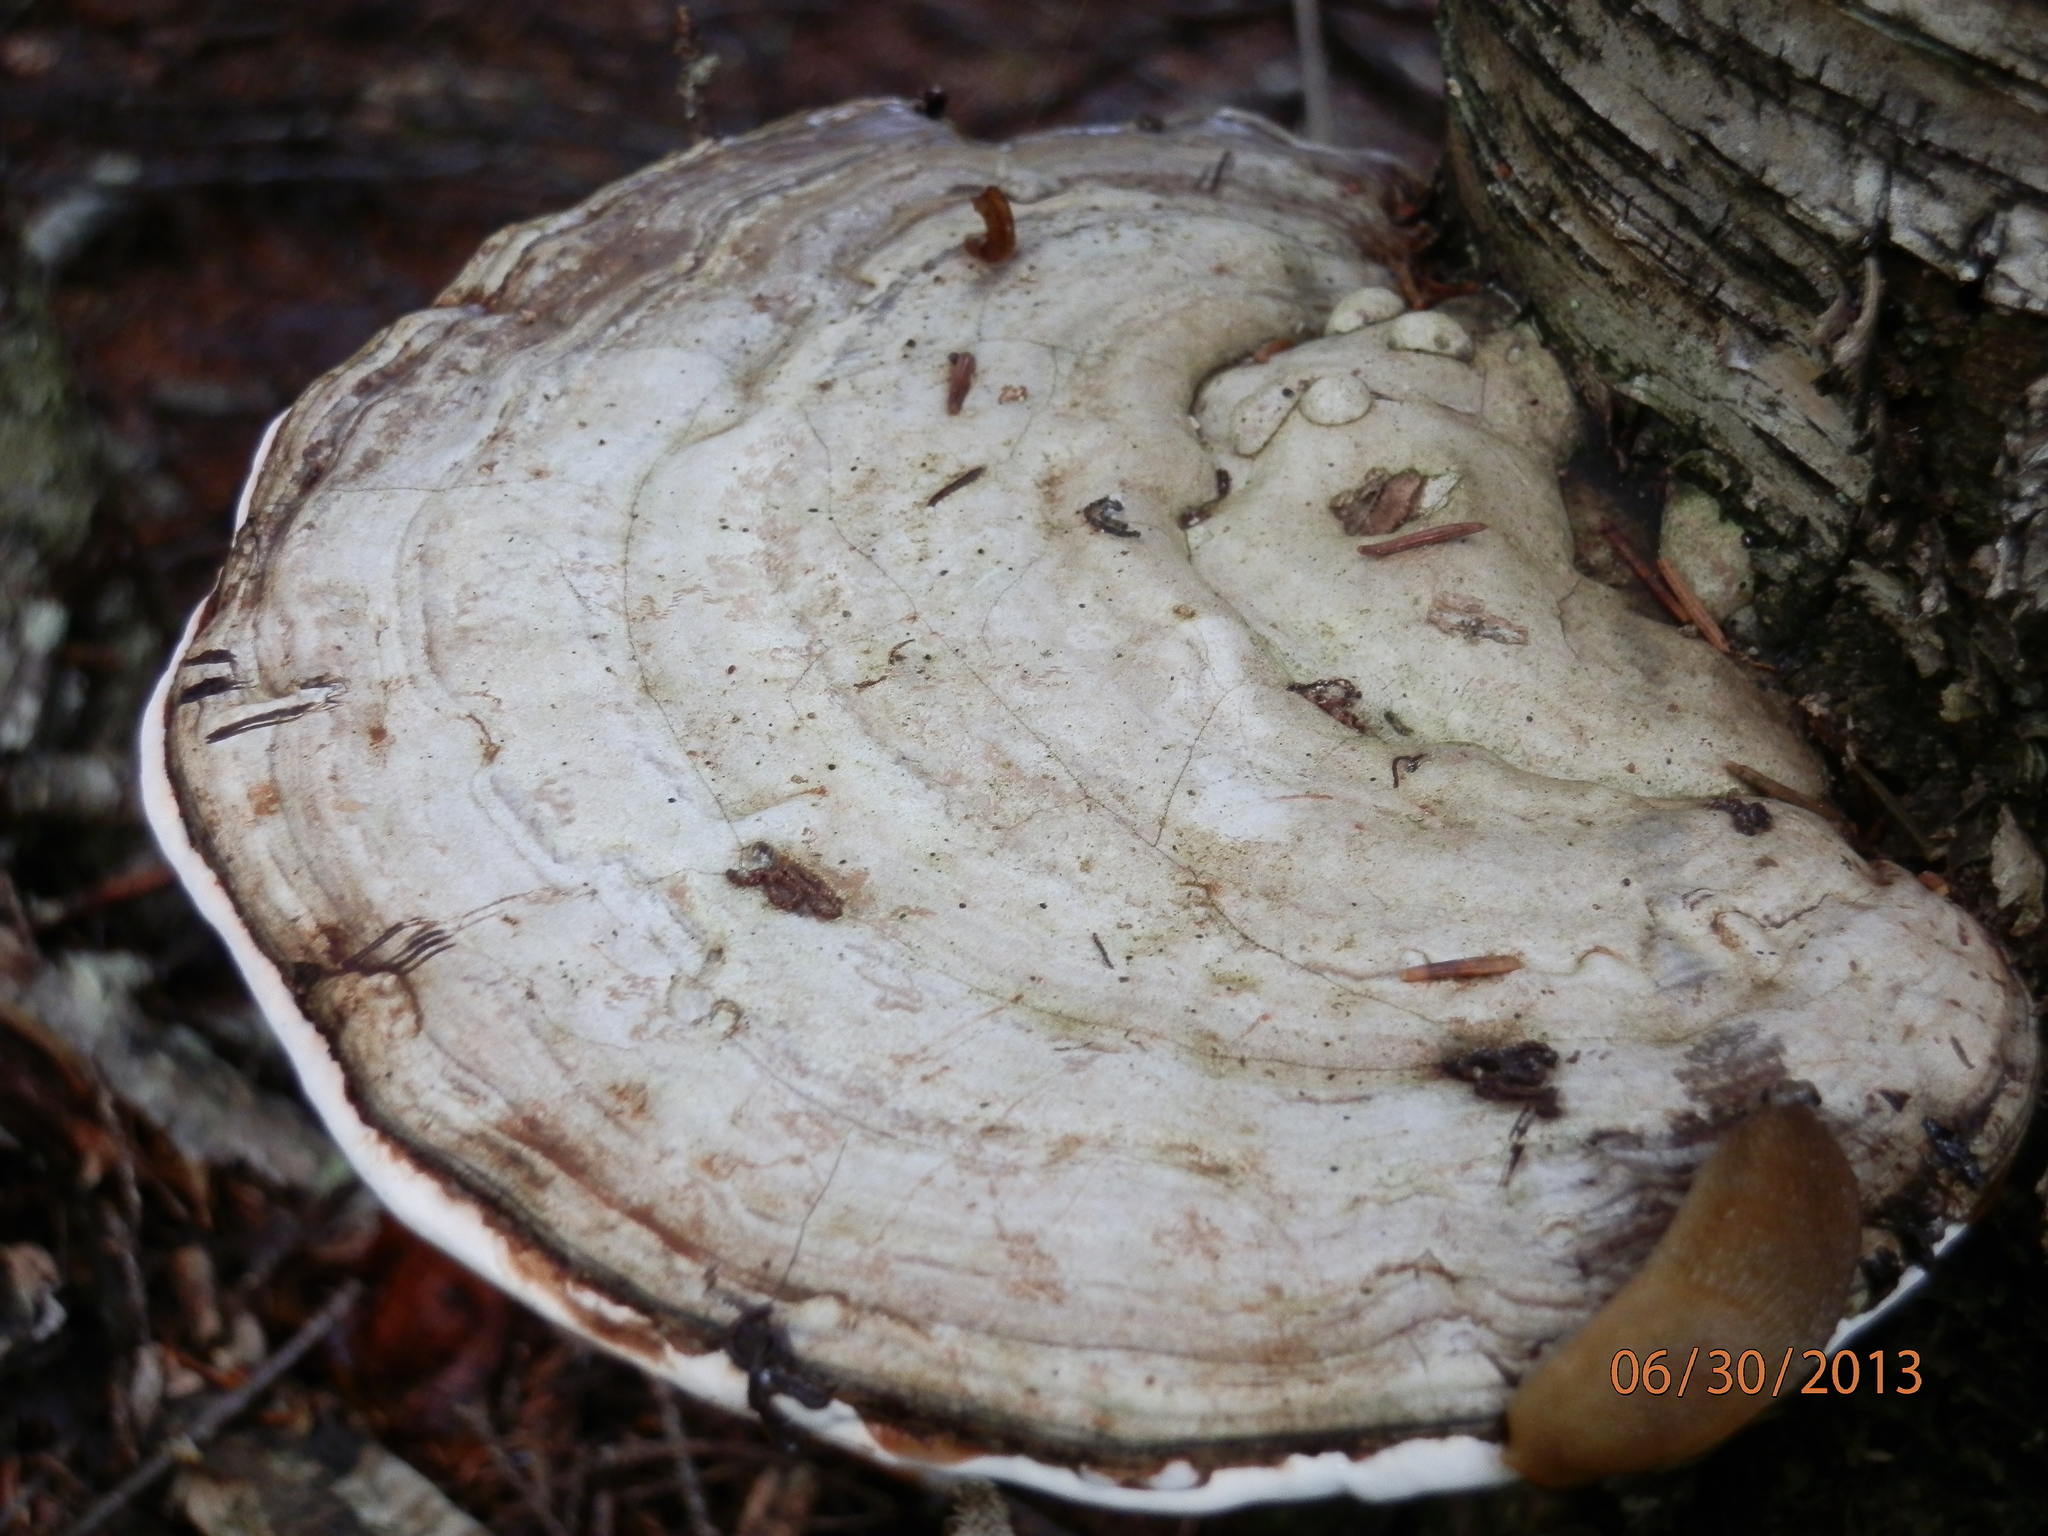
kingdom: Fungi
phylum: Basidiomycota
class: Agaricomycetes
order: Polyporales
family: Polyporaceae
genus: Ganoderma
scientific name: Ganoderma applanatum
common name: Artist's bracket
